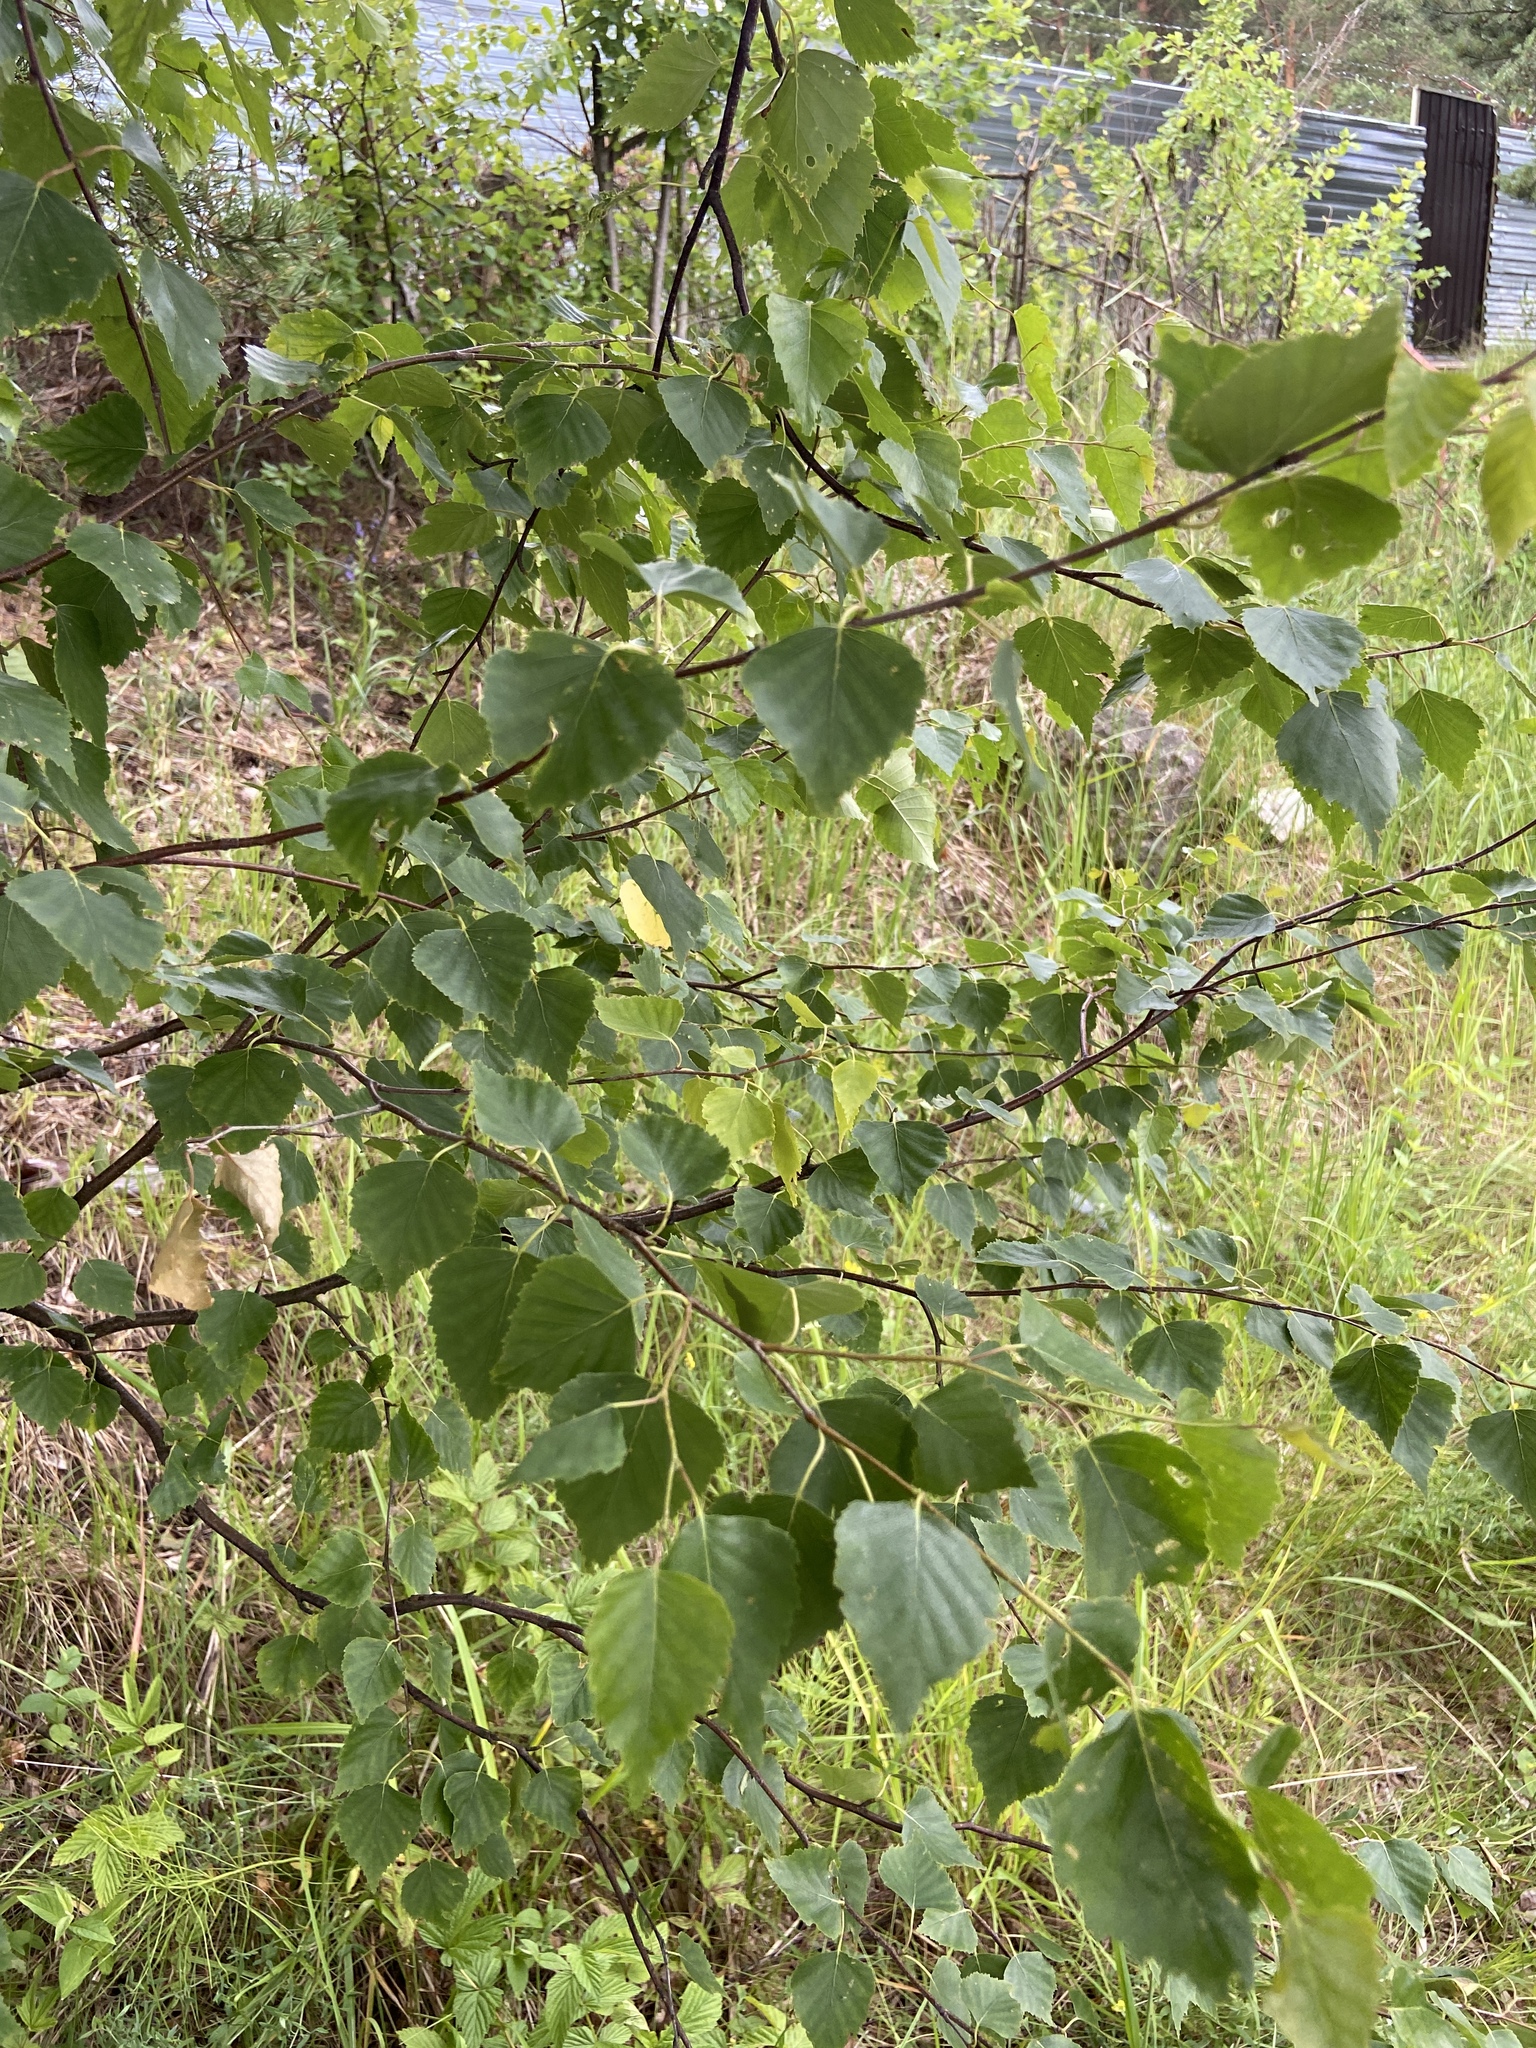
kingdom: Plantae
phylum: Tracheophyta
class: Magnoliopsida
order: Fagales
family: Betulaceae
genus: Betula
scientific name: Betula pendula
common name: Silver birch
